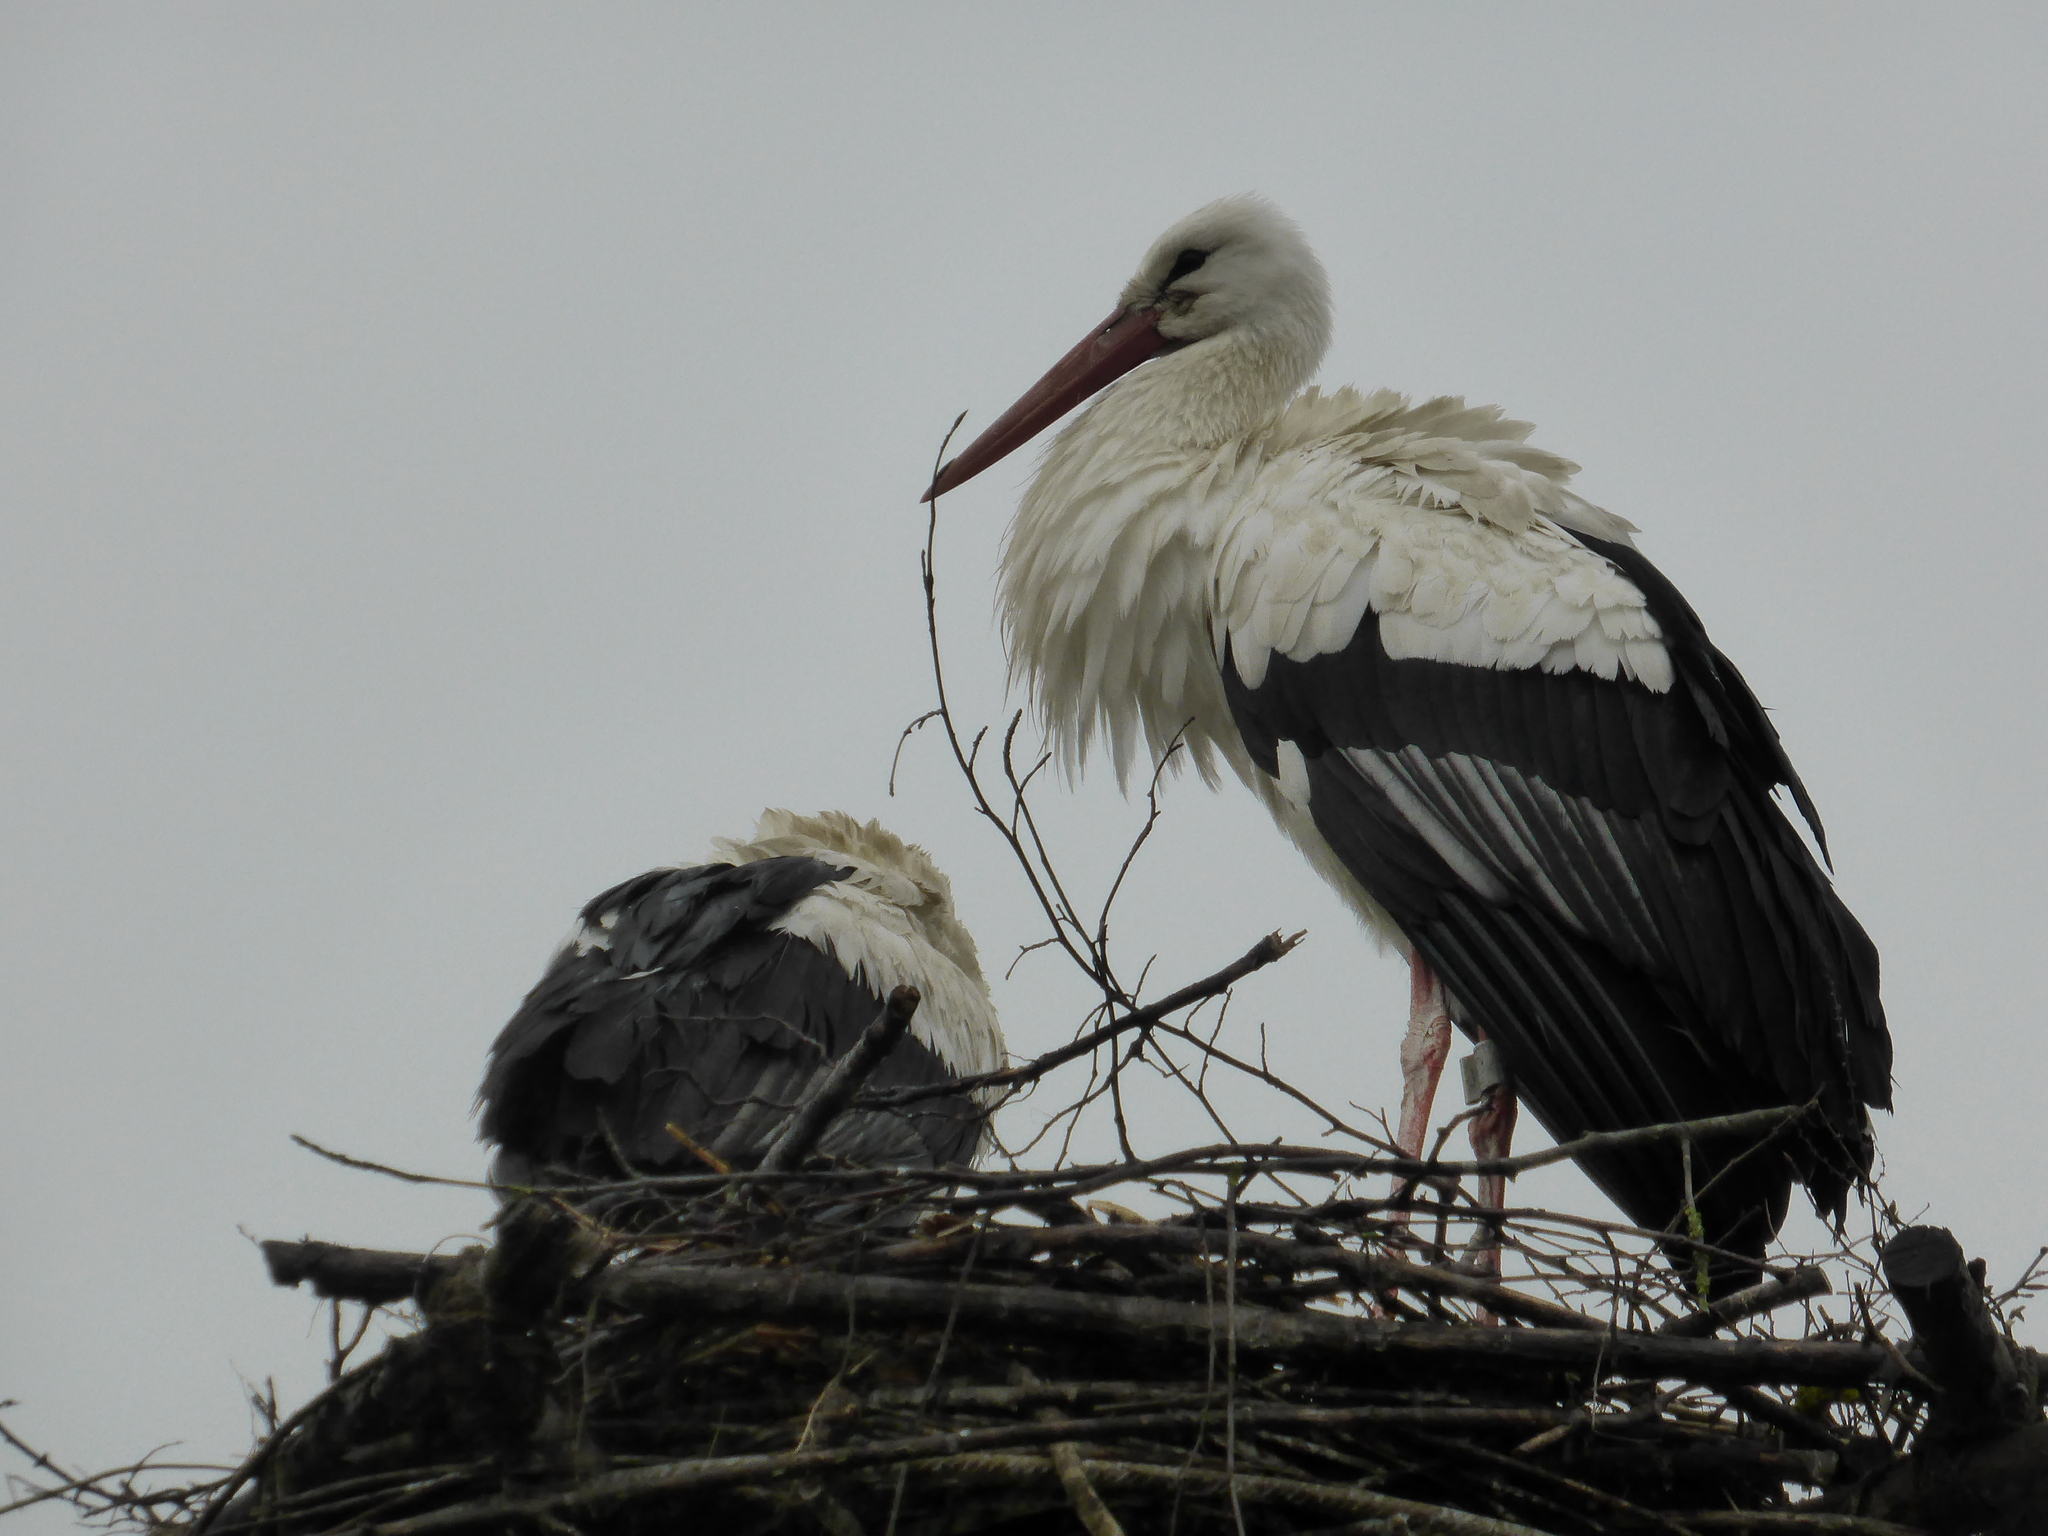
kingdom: Animalia
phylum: Chordata
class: Aves
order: Ciconiiformes
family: Ciconiidae
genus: Ciconia
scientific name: Ciconia ciconia
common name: White stork
